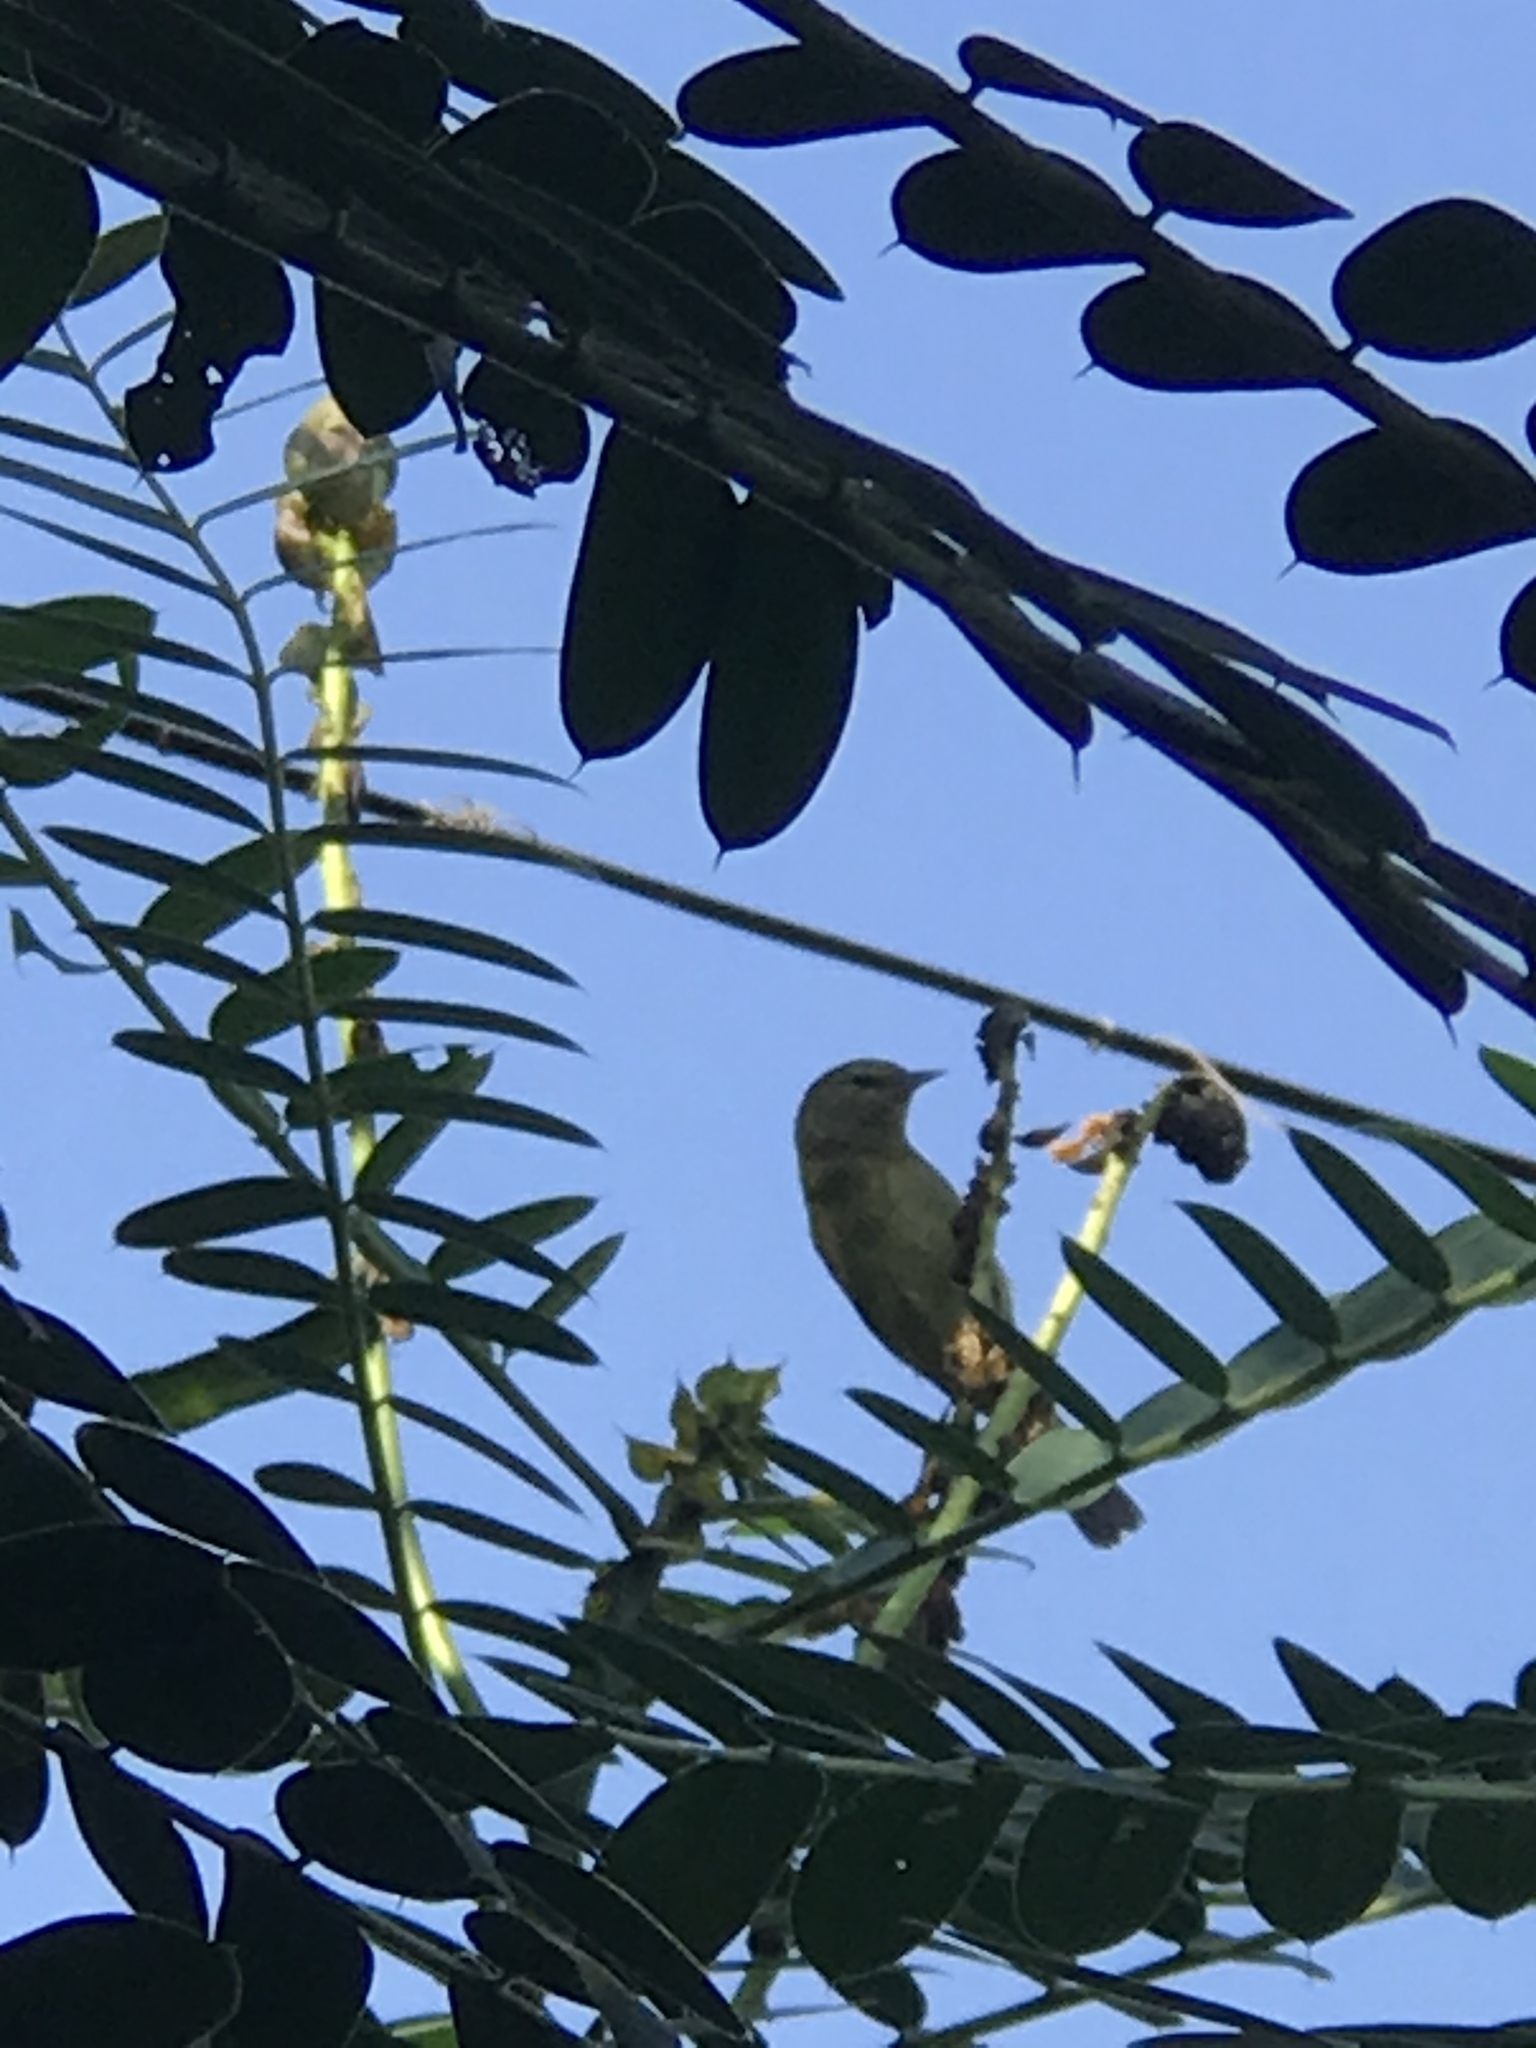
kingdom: Animalia
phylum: Chordata
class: Aves
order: Passeriformes
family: Parulidae
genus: Leiothlypis
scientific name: Leiothlypis celata
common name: Orange-crowned warbler
